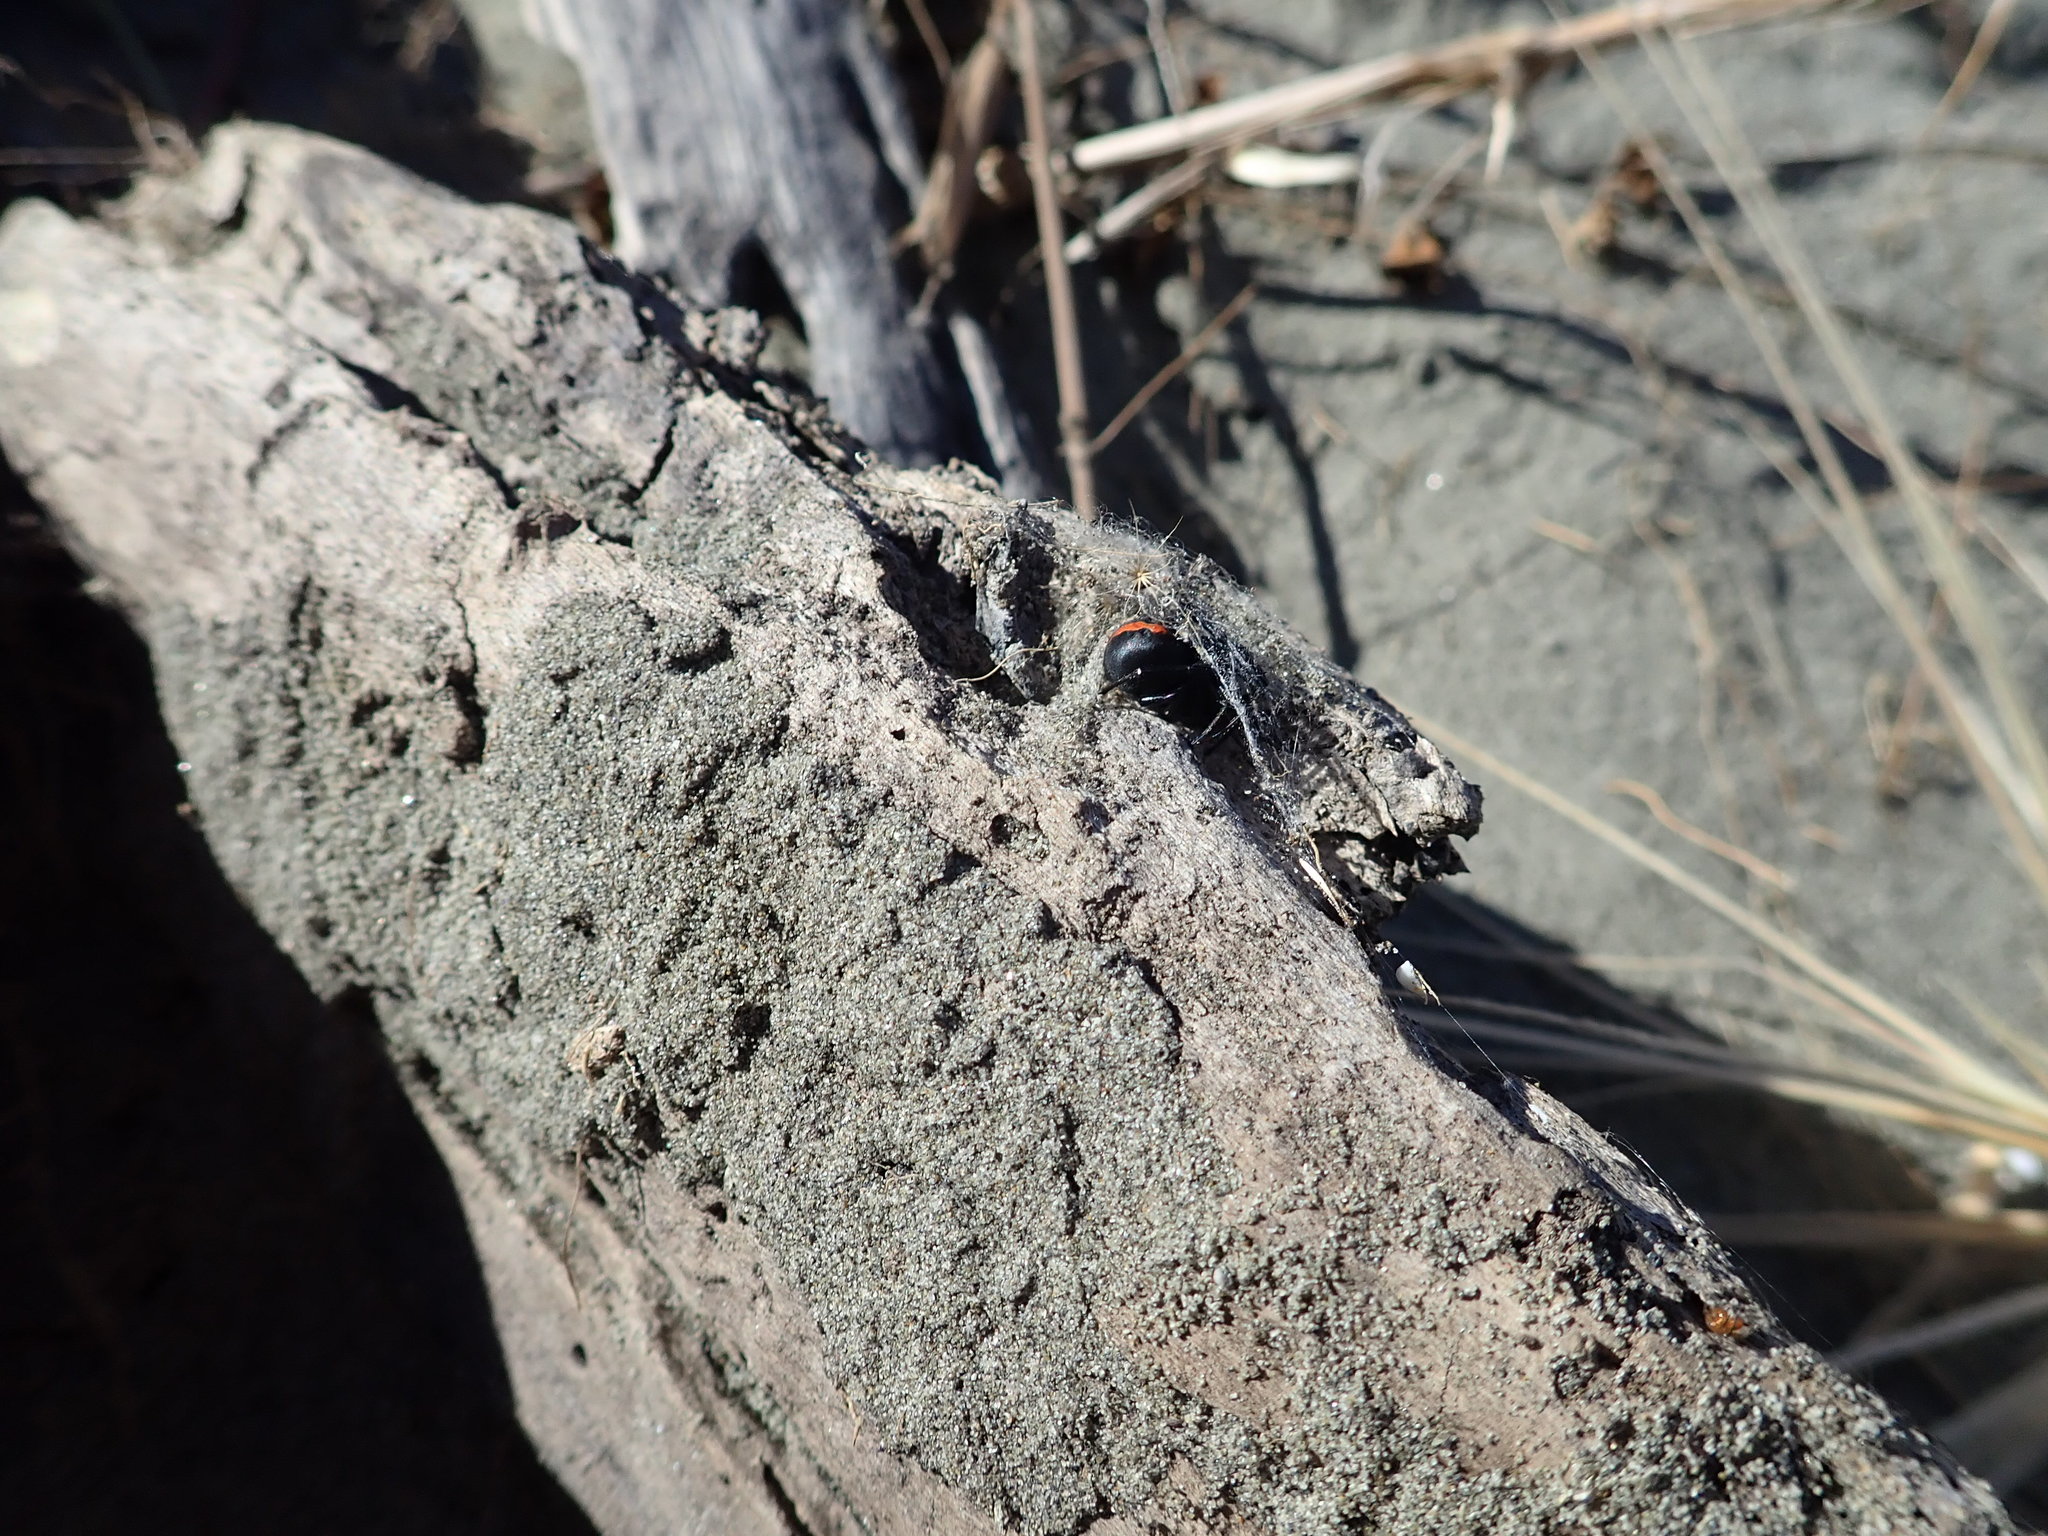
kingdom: Animalia
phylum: Arthropoda
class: Arachnida
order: Araneae
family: Theridiidae
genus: Latrodectus
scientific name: Latrodectus katipo
